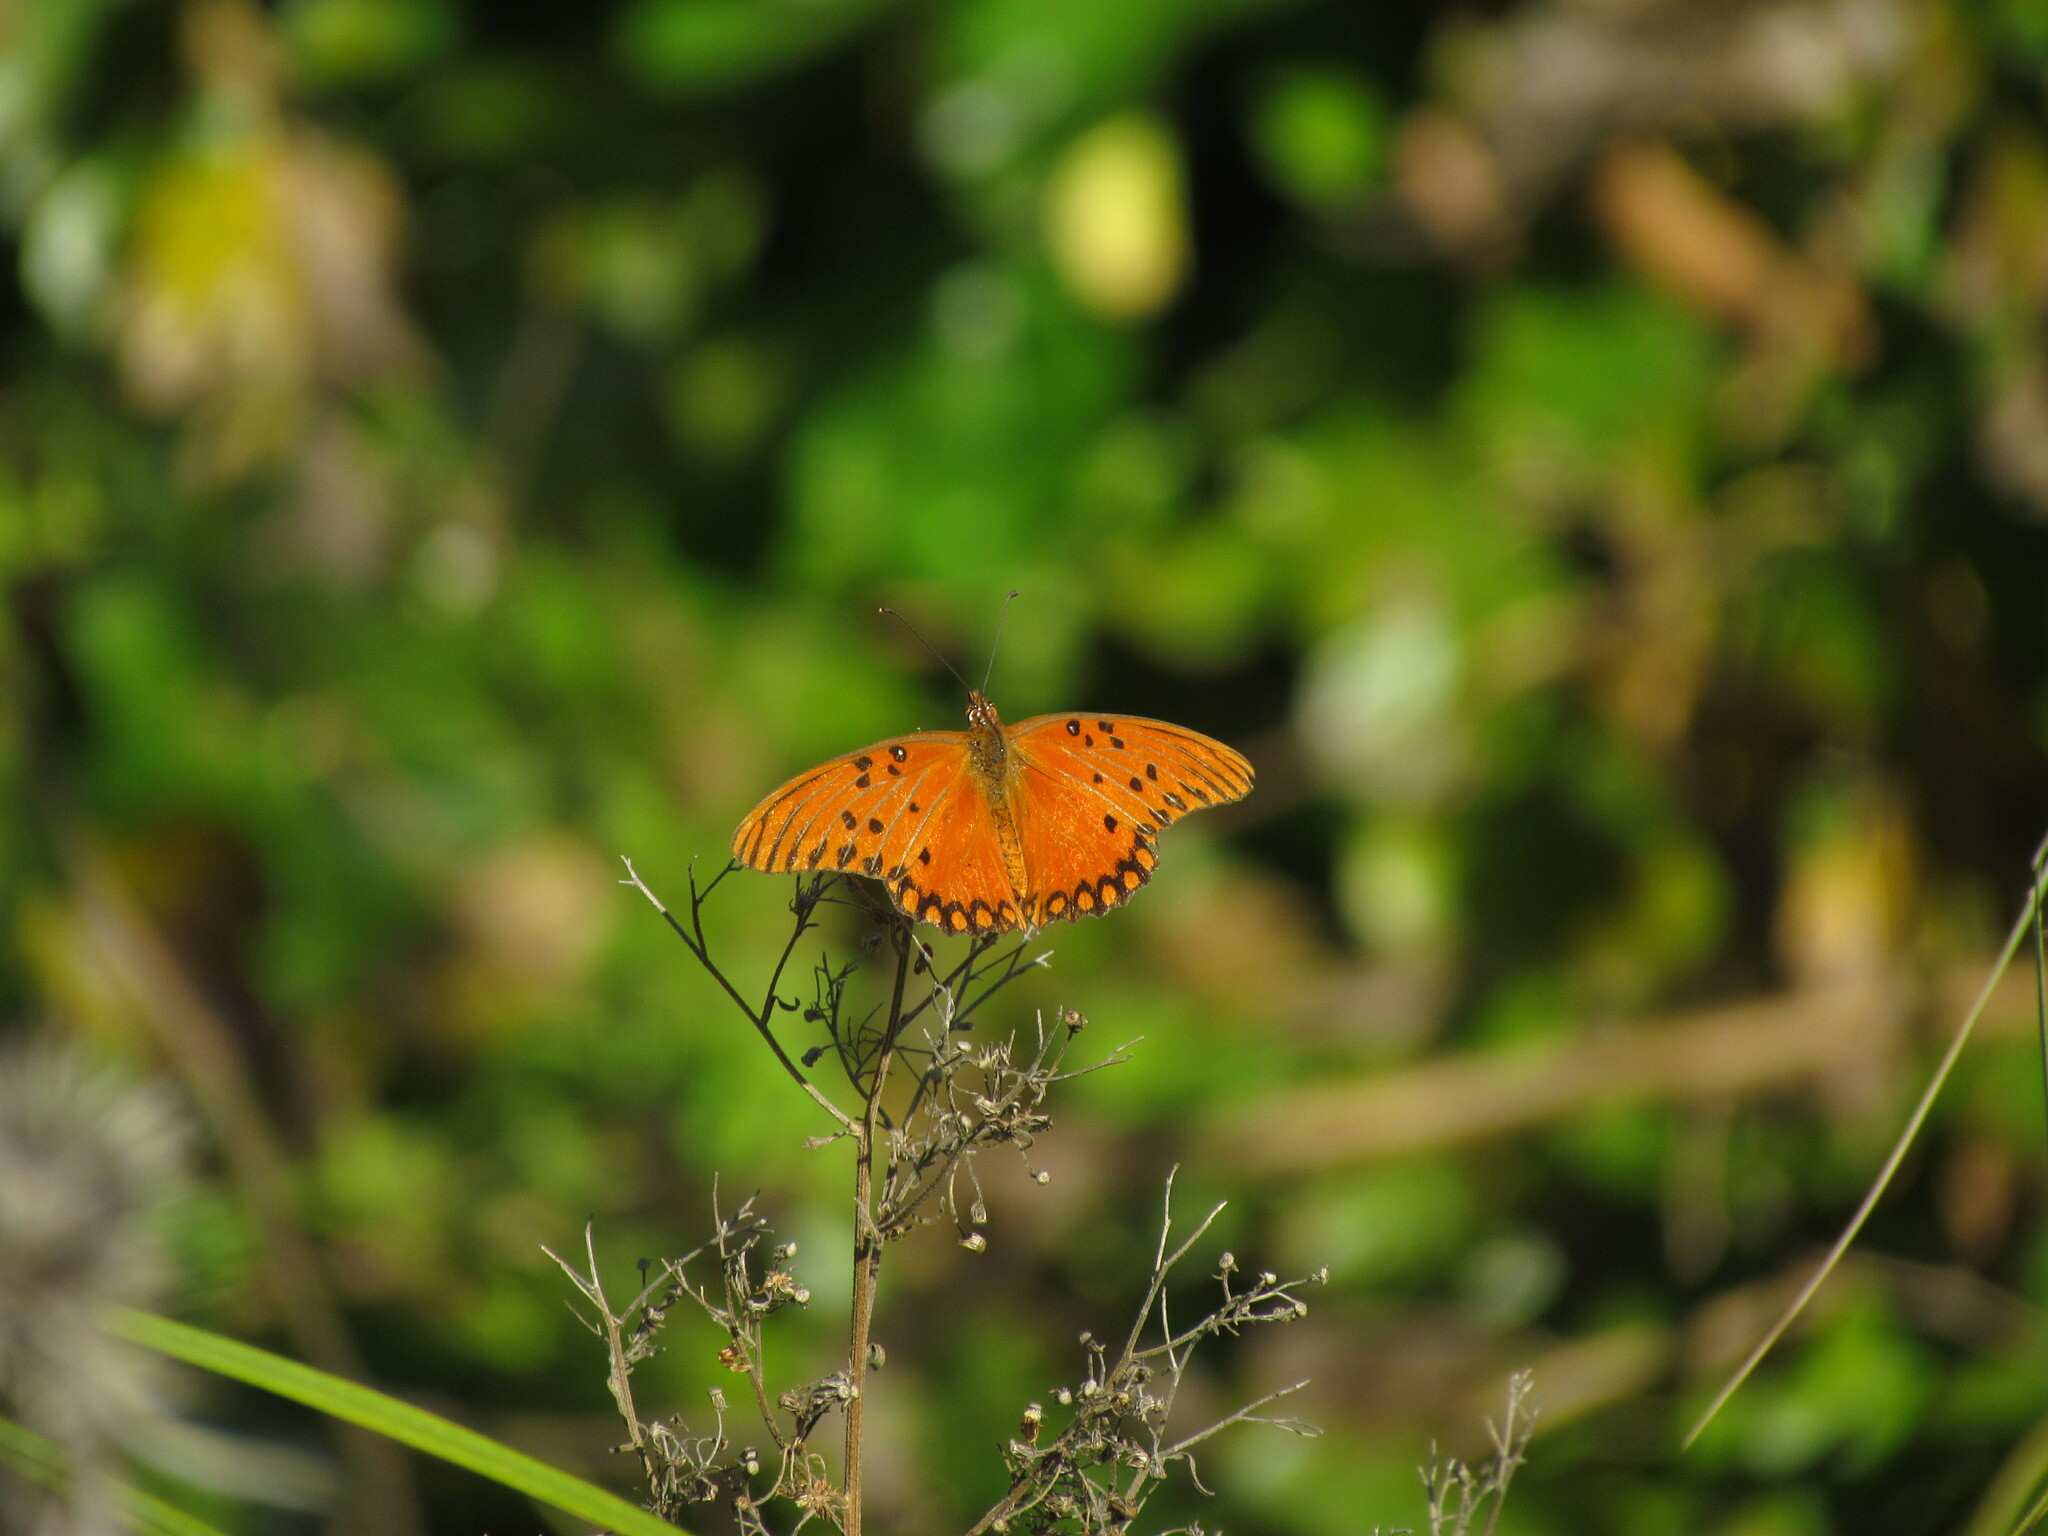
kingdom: Animalia
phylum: Arthropoda
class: Insecta
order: Lepidoptera
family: Nymphalidae
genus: Dione
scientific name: Dione vanillae
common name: Gulf fritillary
